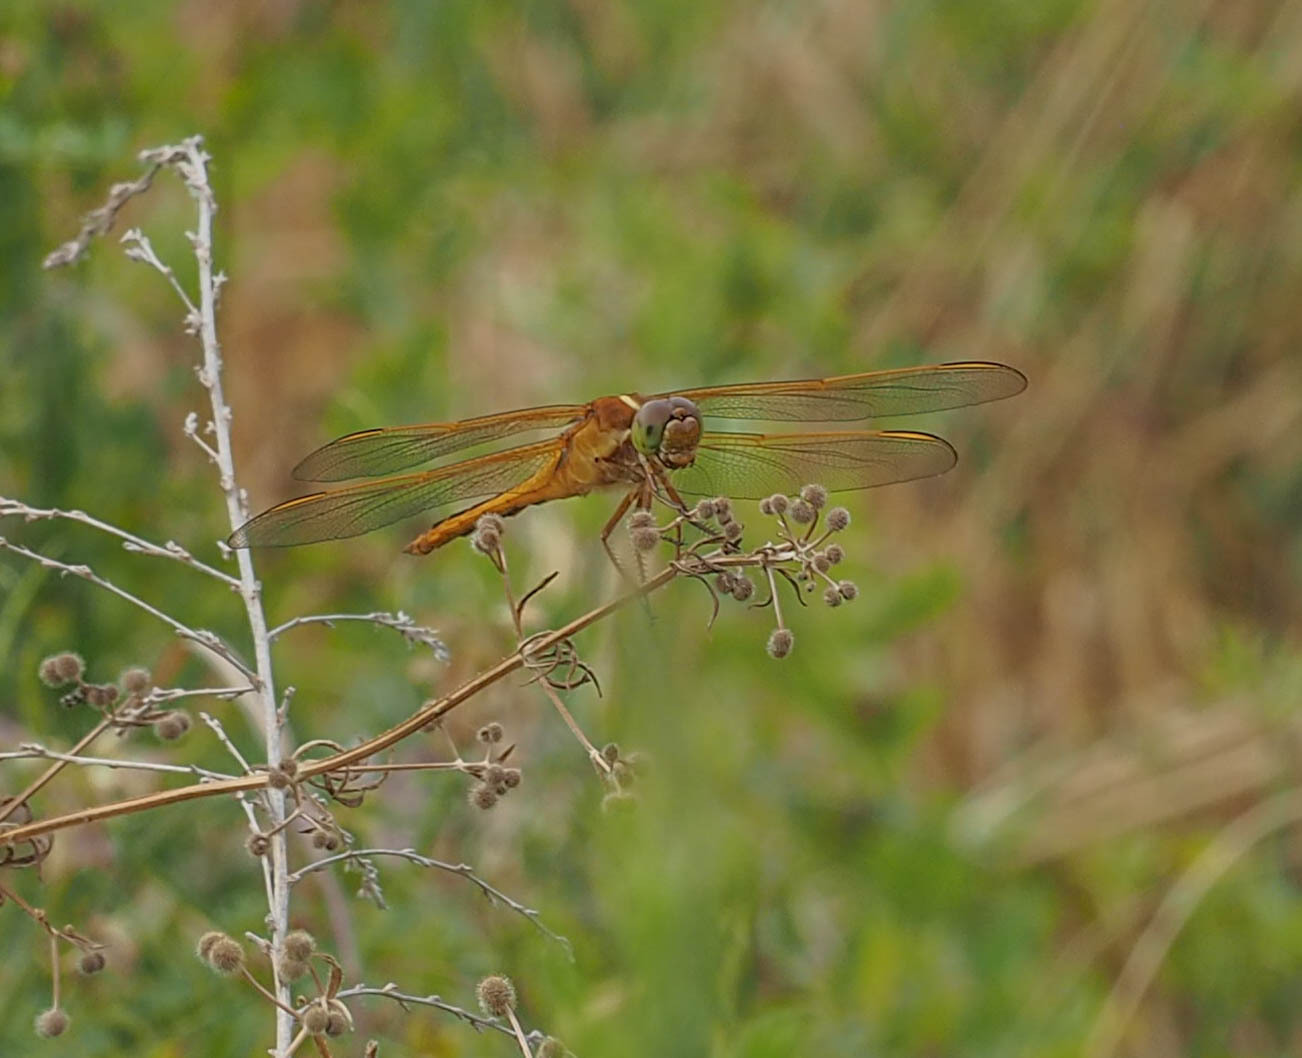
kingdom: Animalia
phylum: Arthropoda
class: Insecta
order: Odonata
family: Libellulidae
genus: Libellula
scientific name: Libellula needhami
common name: Needham's skimmer
